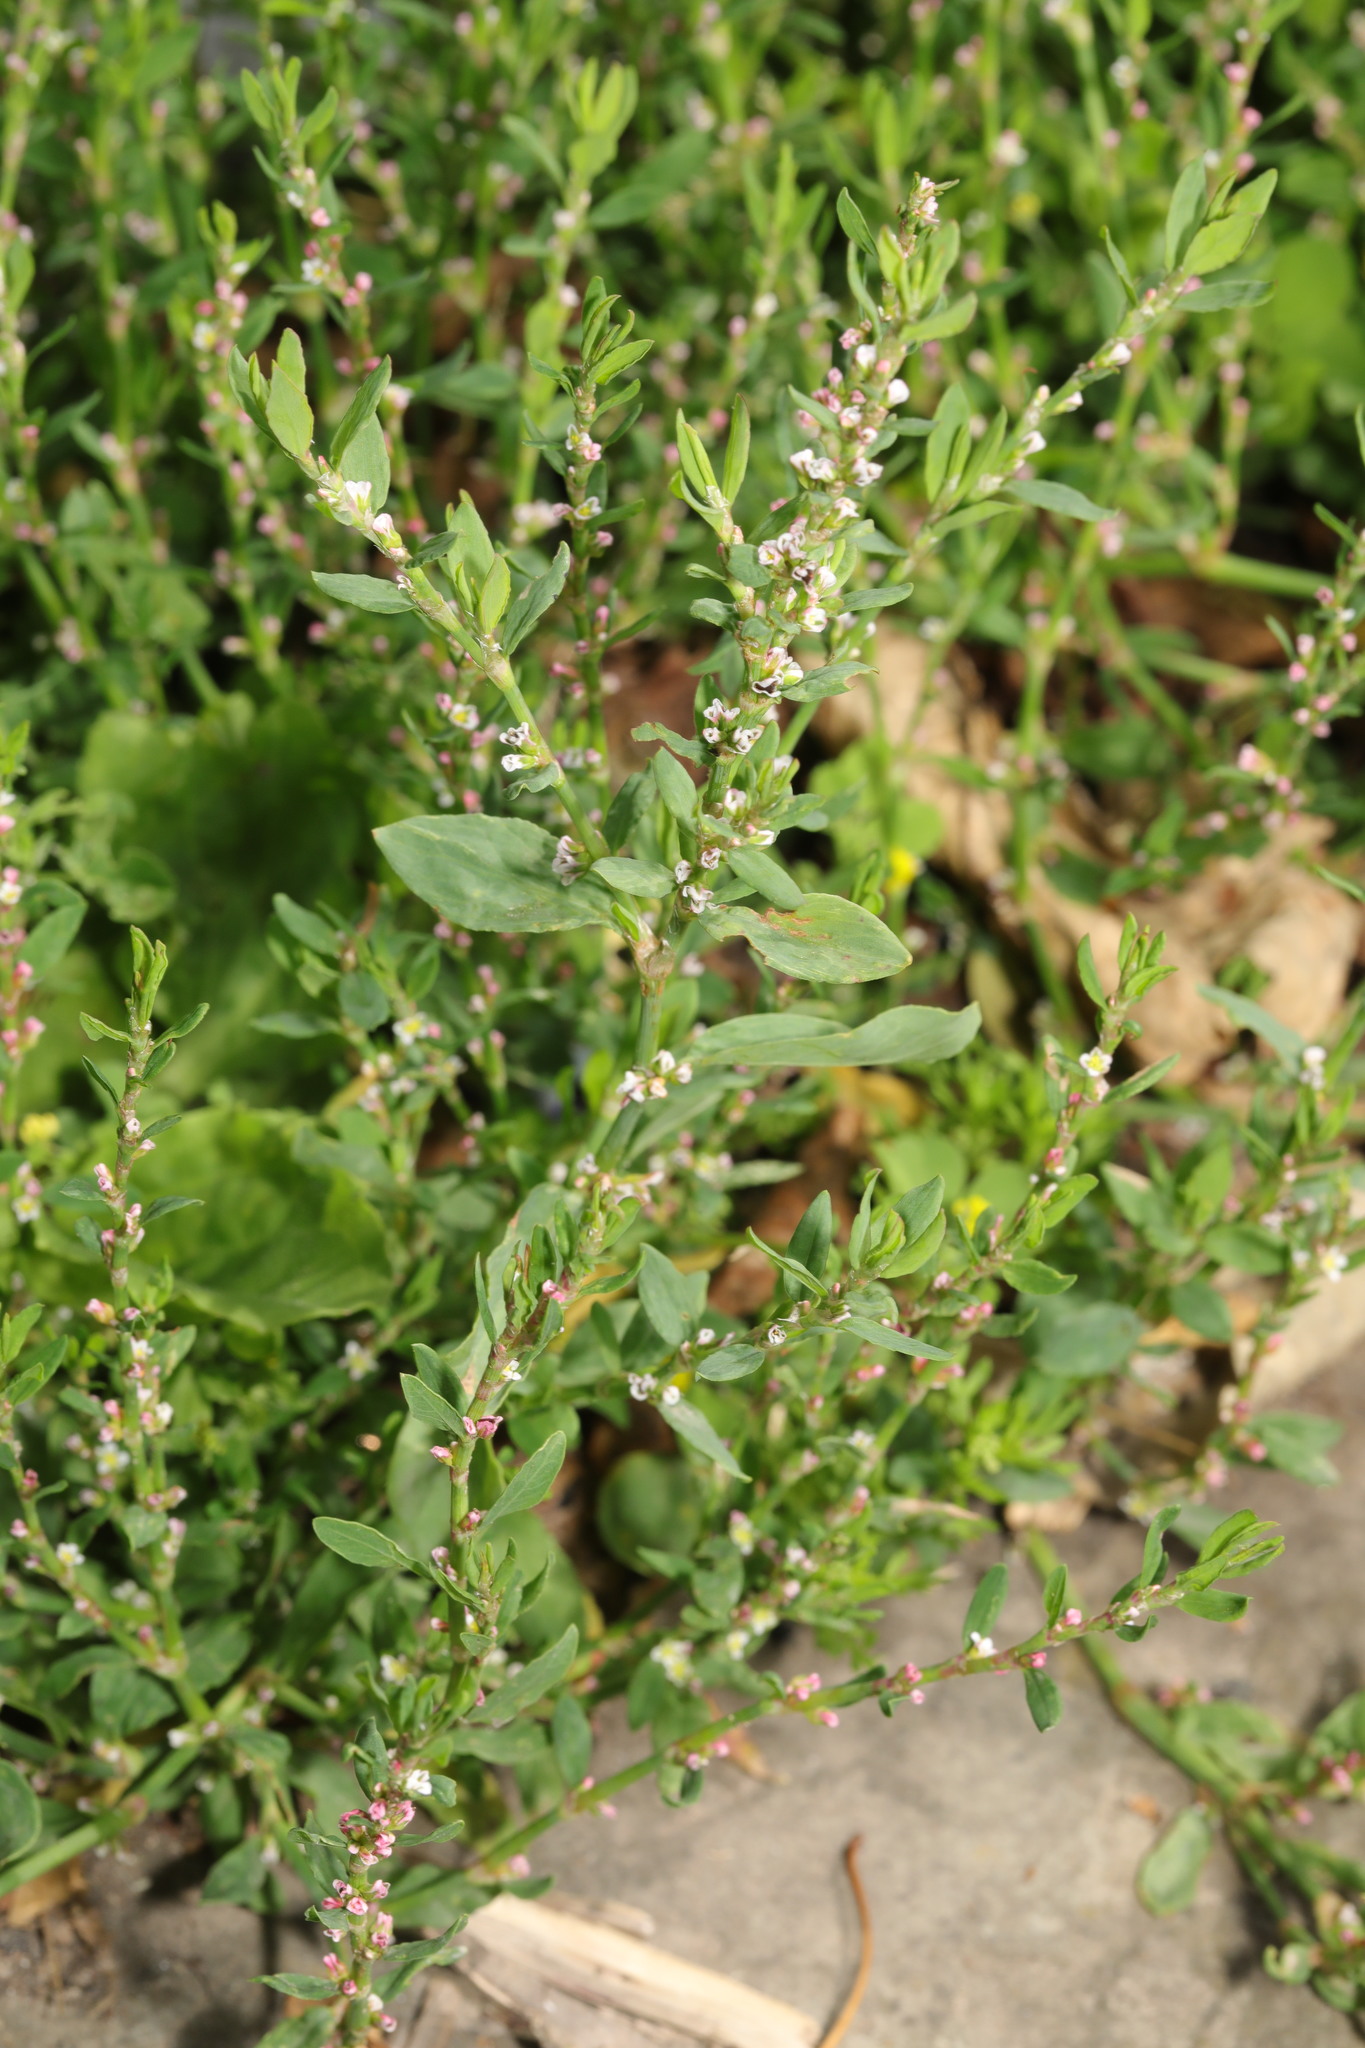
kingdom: Plantae
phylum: Tracheophyta
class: Magnoliopsida
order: Caryophyllales
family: Polygonaceae
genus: Polygonum
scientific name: Polygonum aviculare
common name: Prostrate knotweed
